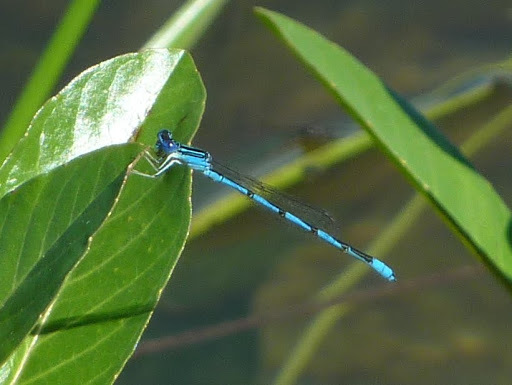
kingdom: Animalia
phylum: Arthropoda
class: Insecta
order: Odonata
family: Coenagrionidae
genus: Enallagma
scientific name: Enallagma basidens
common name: Double-striped bluet
